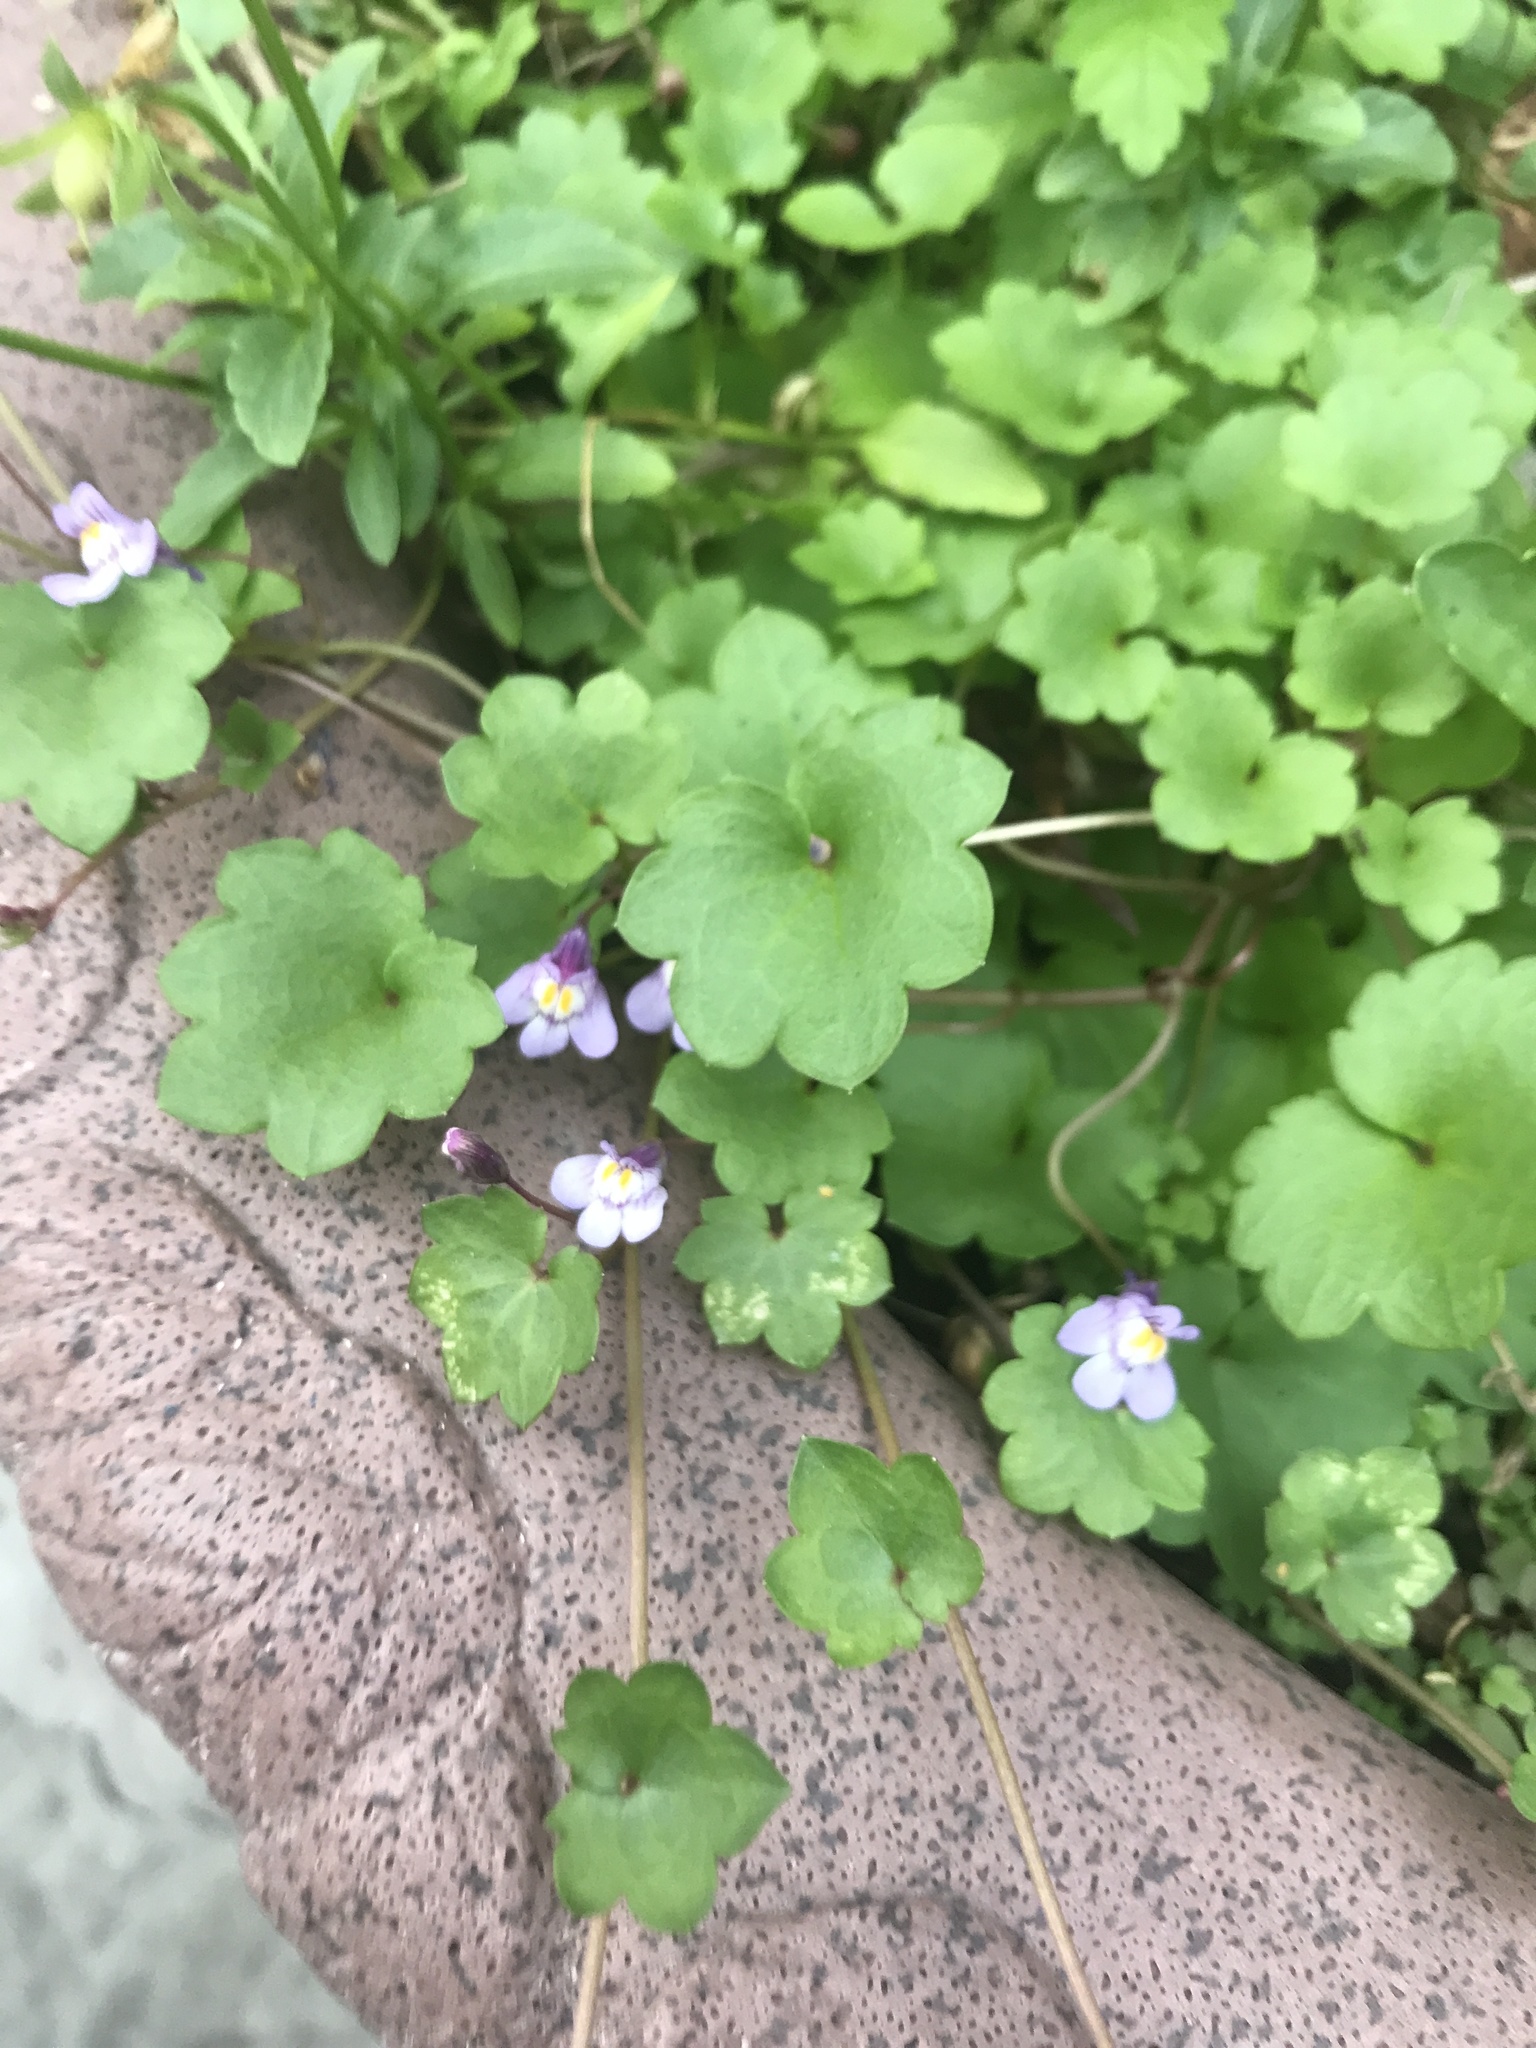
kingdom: Plantae
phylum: Tracheophyta
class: Magnoliopsida
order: Lamiales
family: Plantaginaceae
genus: Cymbalaria
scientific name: Cymbalaria muralis
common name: Ivy-leaved toadflax
